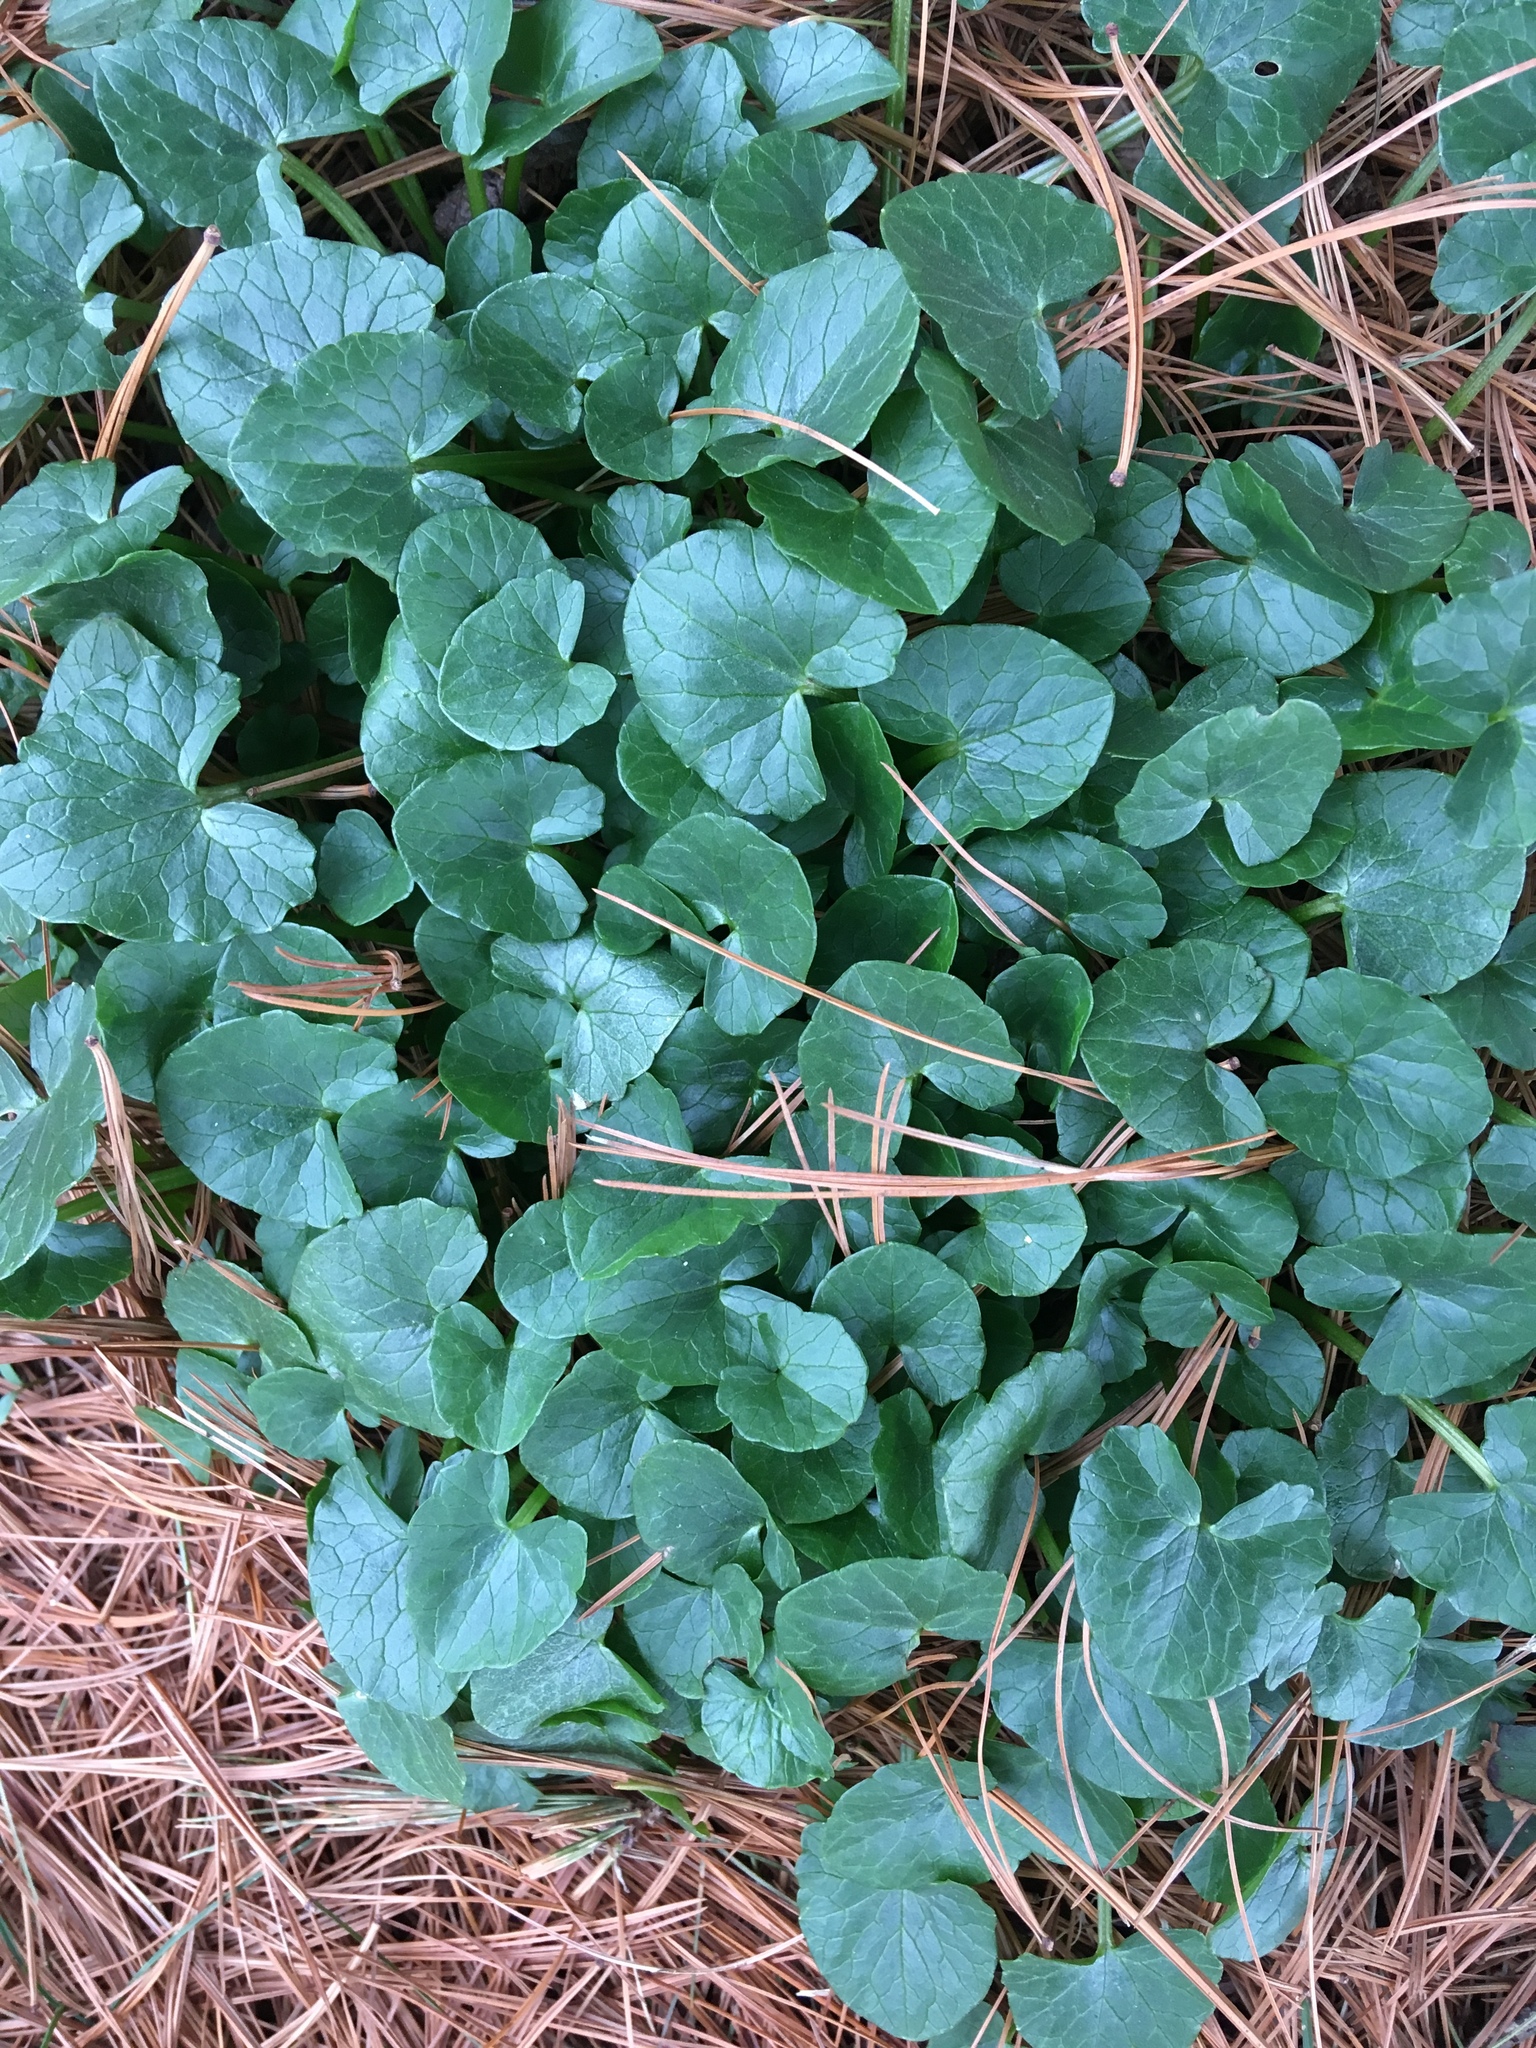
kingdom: Plantae
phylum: Tracheophyta
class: Magnoliopsida
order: Ranunculales
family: Ranunculaceae
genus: Ficaria
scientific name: Ficaria verna
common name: Lesser celandine
